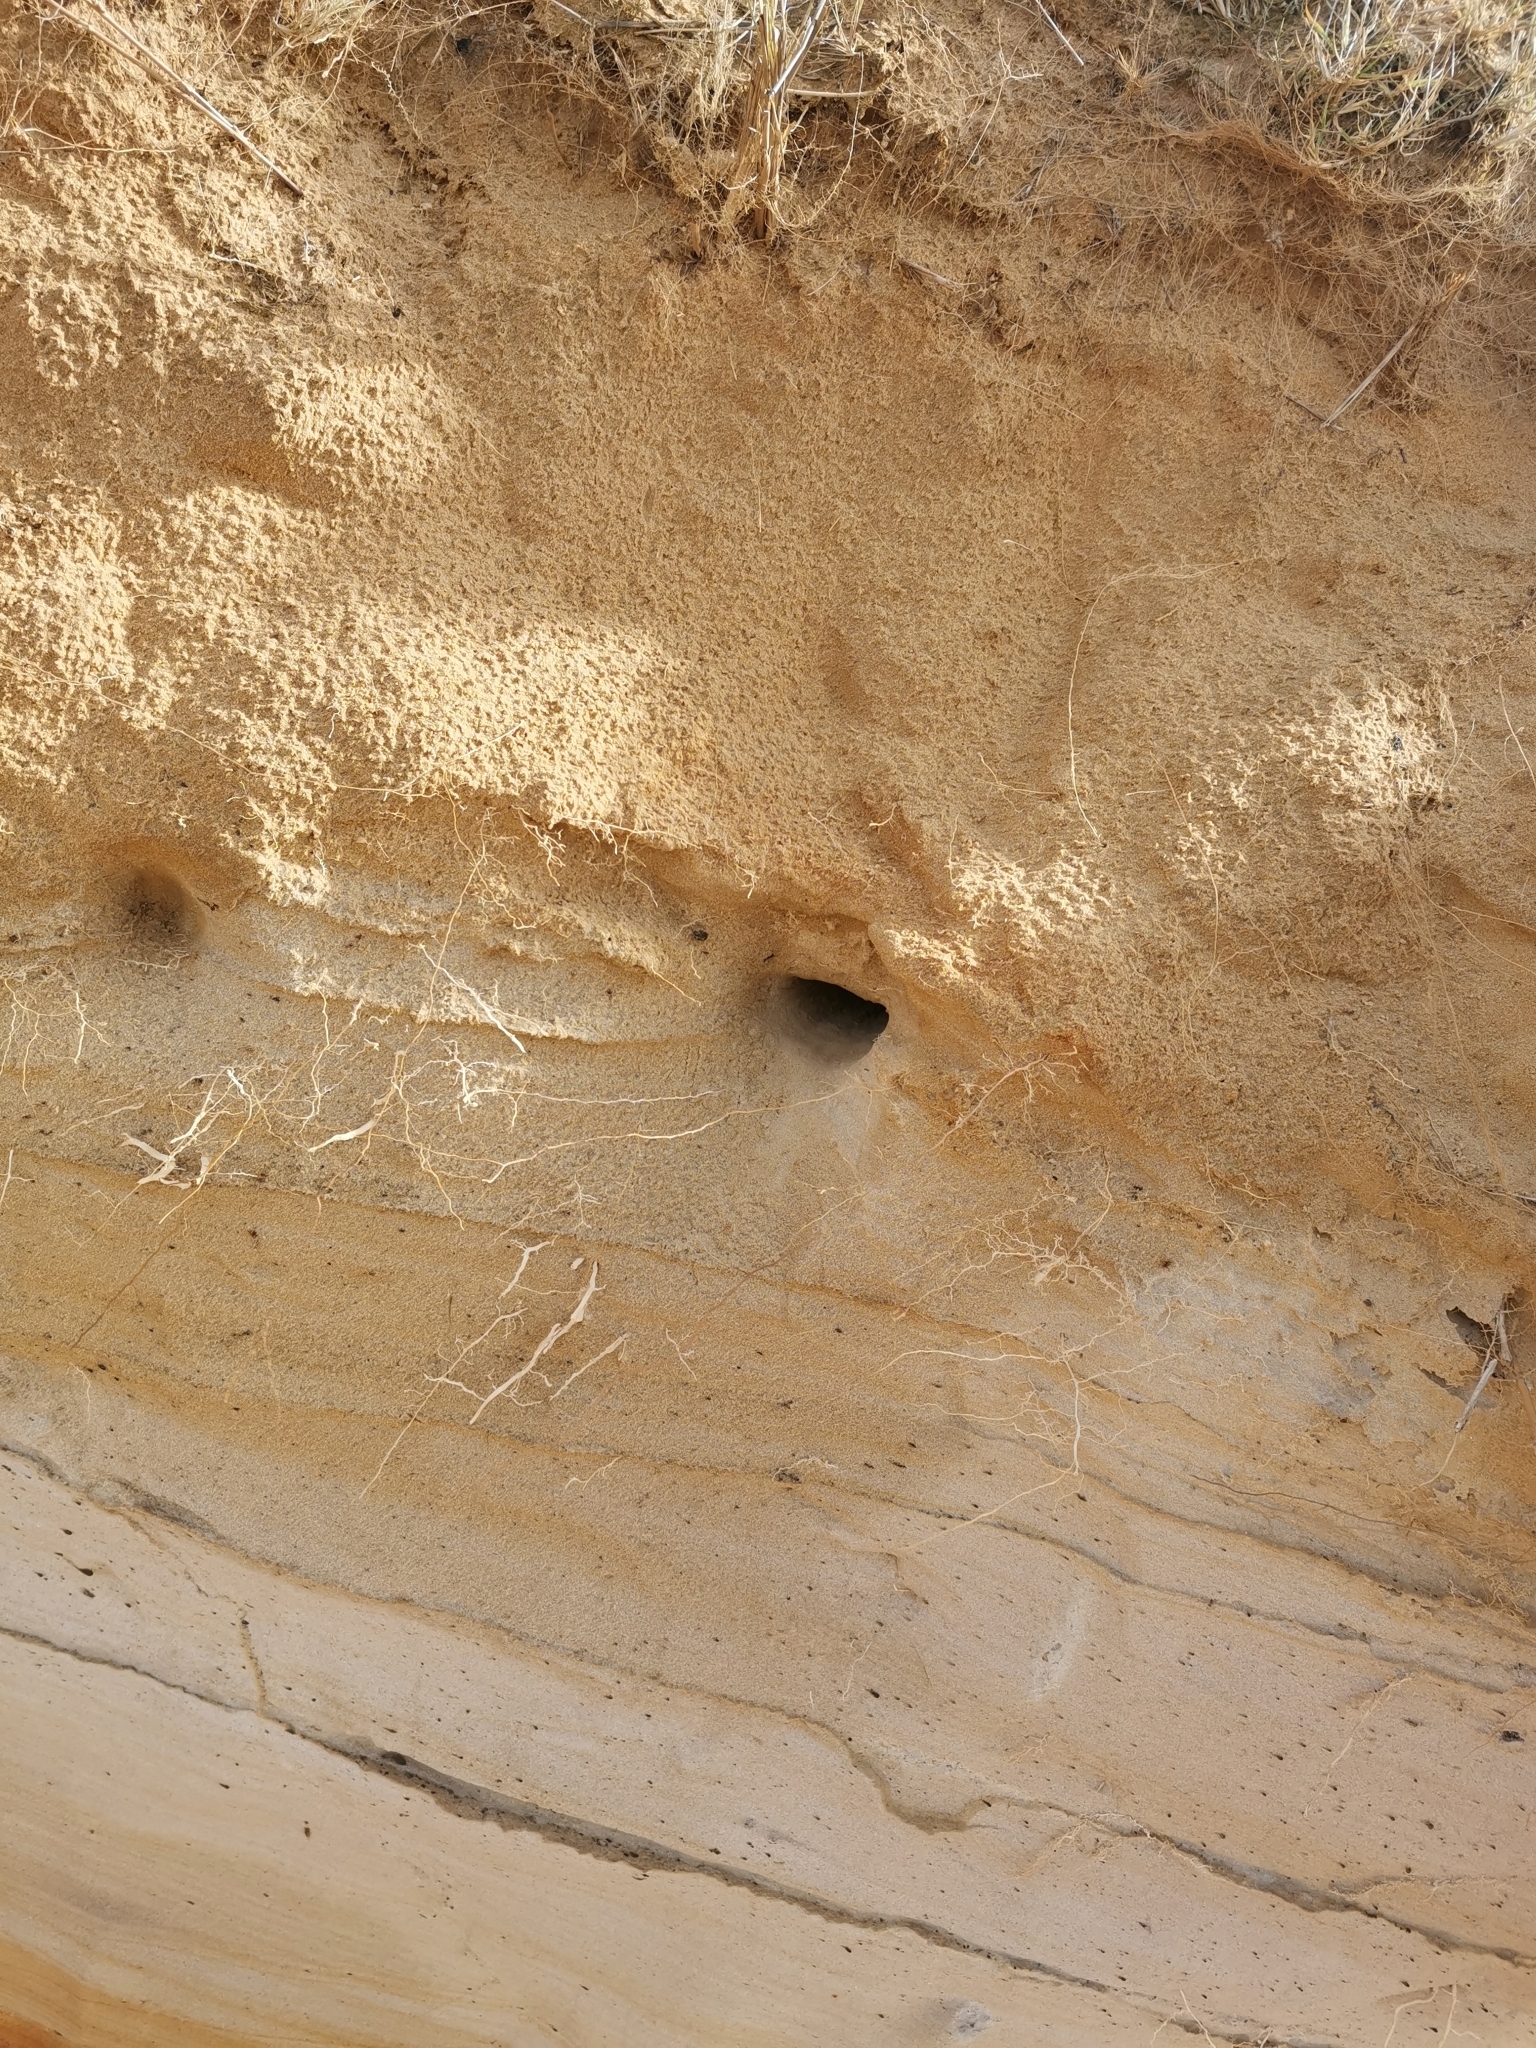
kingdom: Animalia
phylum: Chordata
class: Aves
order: Passeriformes
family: Hirundinidae
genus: Riparia
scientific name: Riparia riparia
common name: Sand martin
